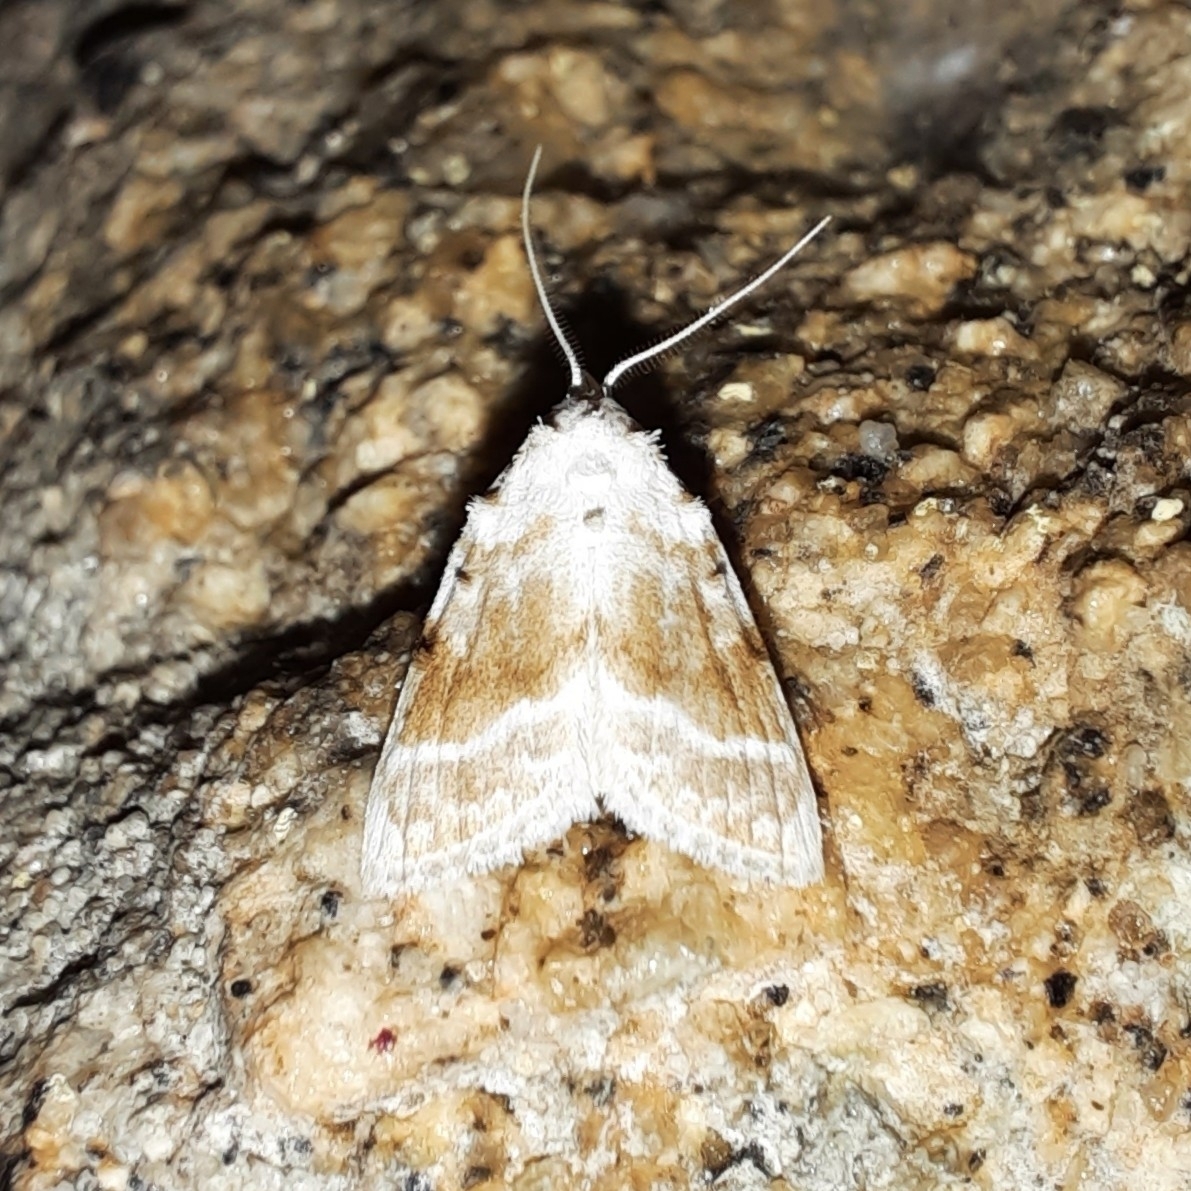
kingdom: Animalia
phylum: Arthropoda
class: Insecta
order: Lepidoptera
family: Nolidae
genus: Meganola
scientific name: Meganola albula
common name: Kent black arches
